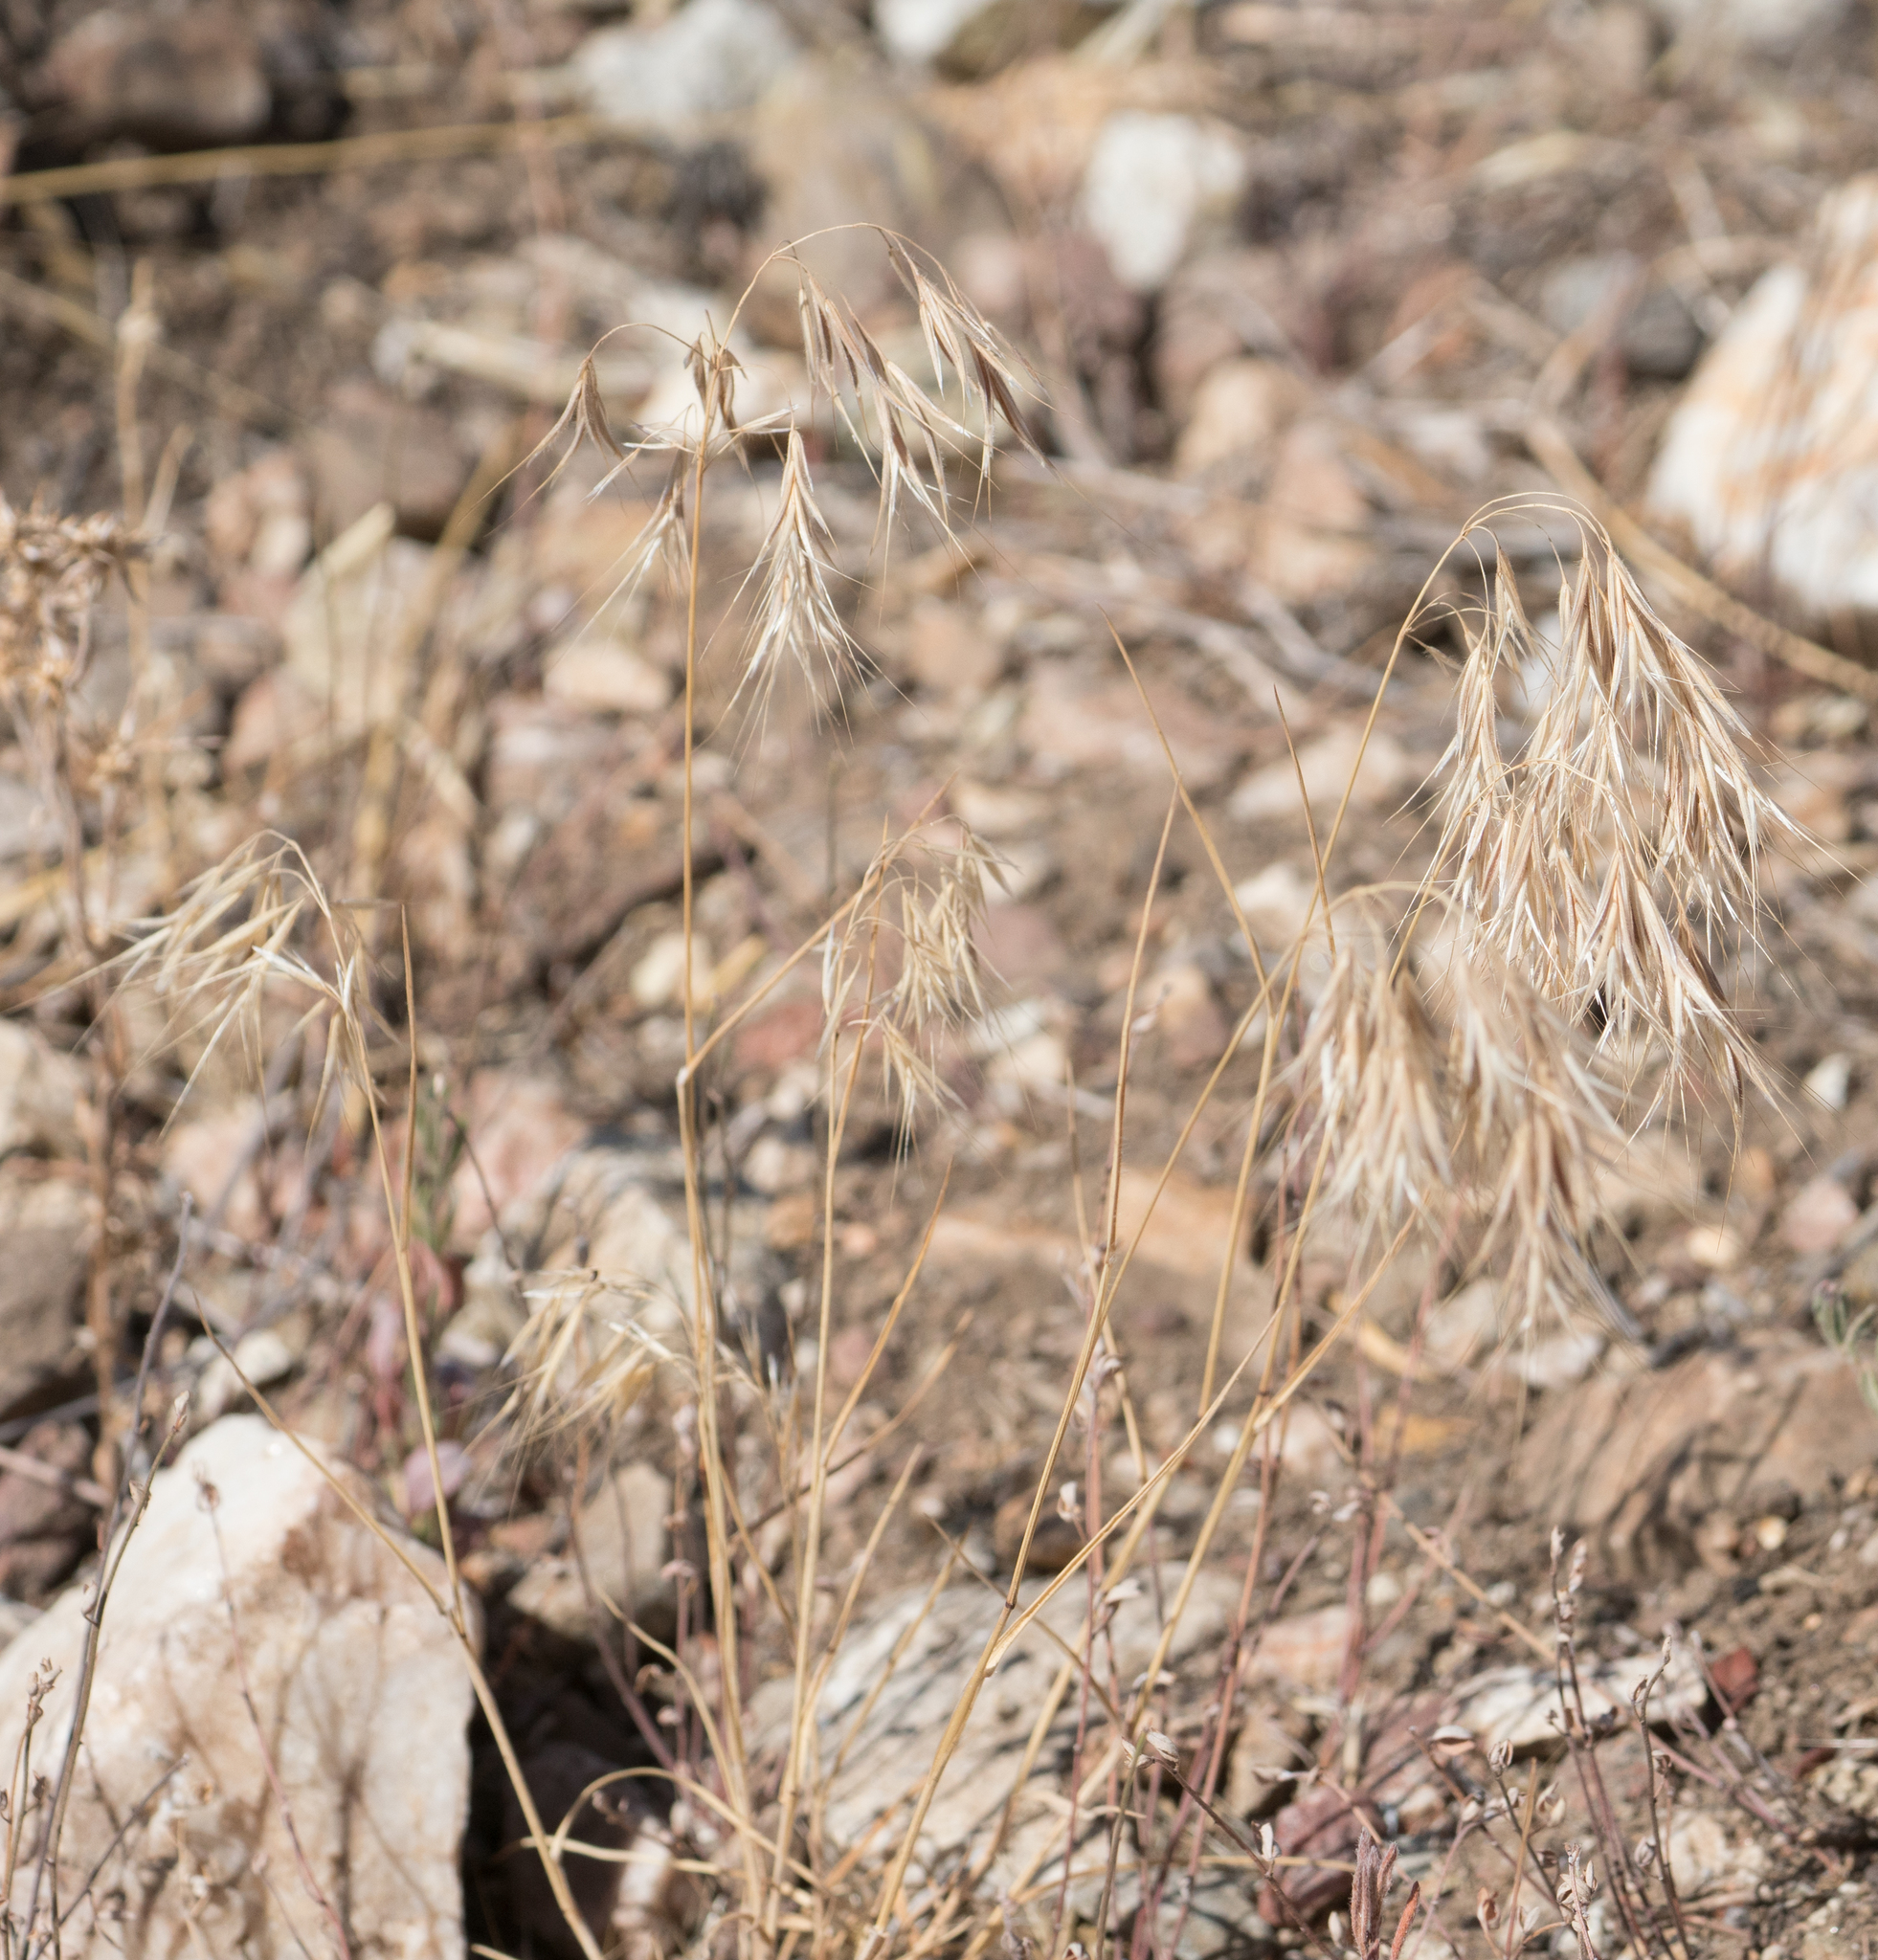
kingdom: Plantae
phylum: Tracheophyta
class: Liliopsida
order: Poales
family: Poaceae
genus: Bromus
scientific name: Bromus tectorum
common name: Cheatgrass
